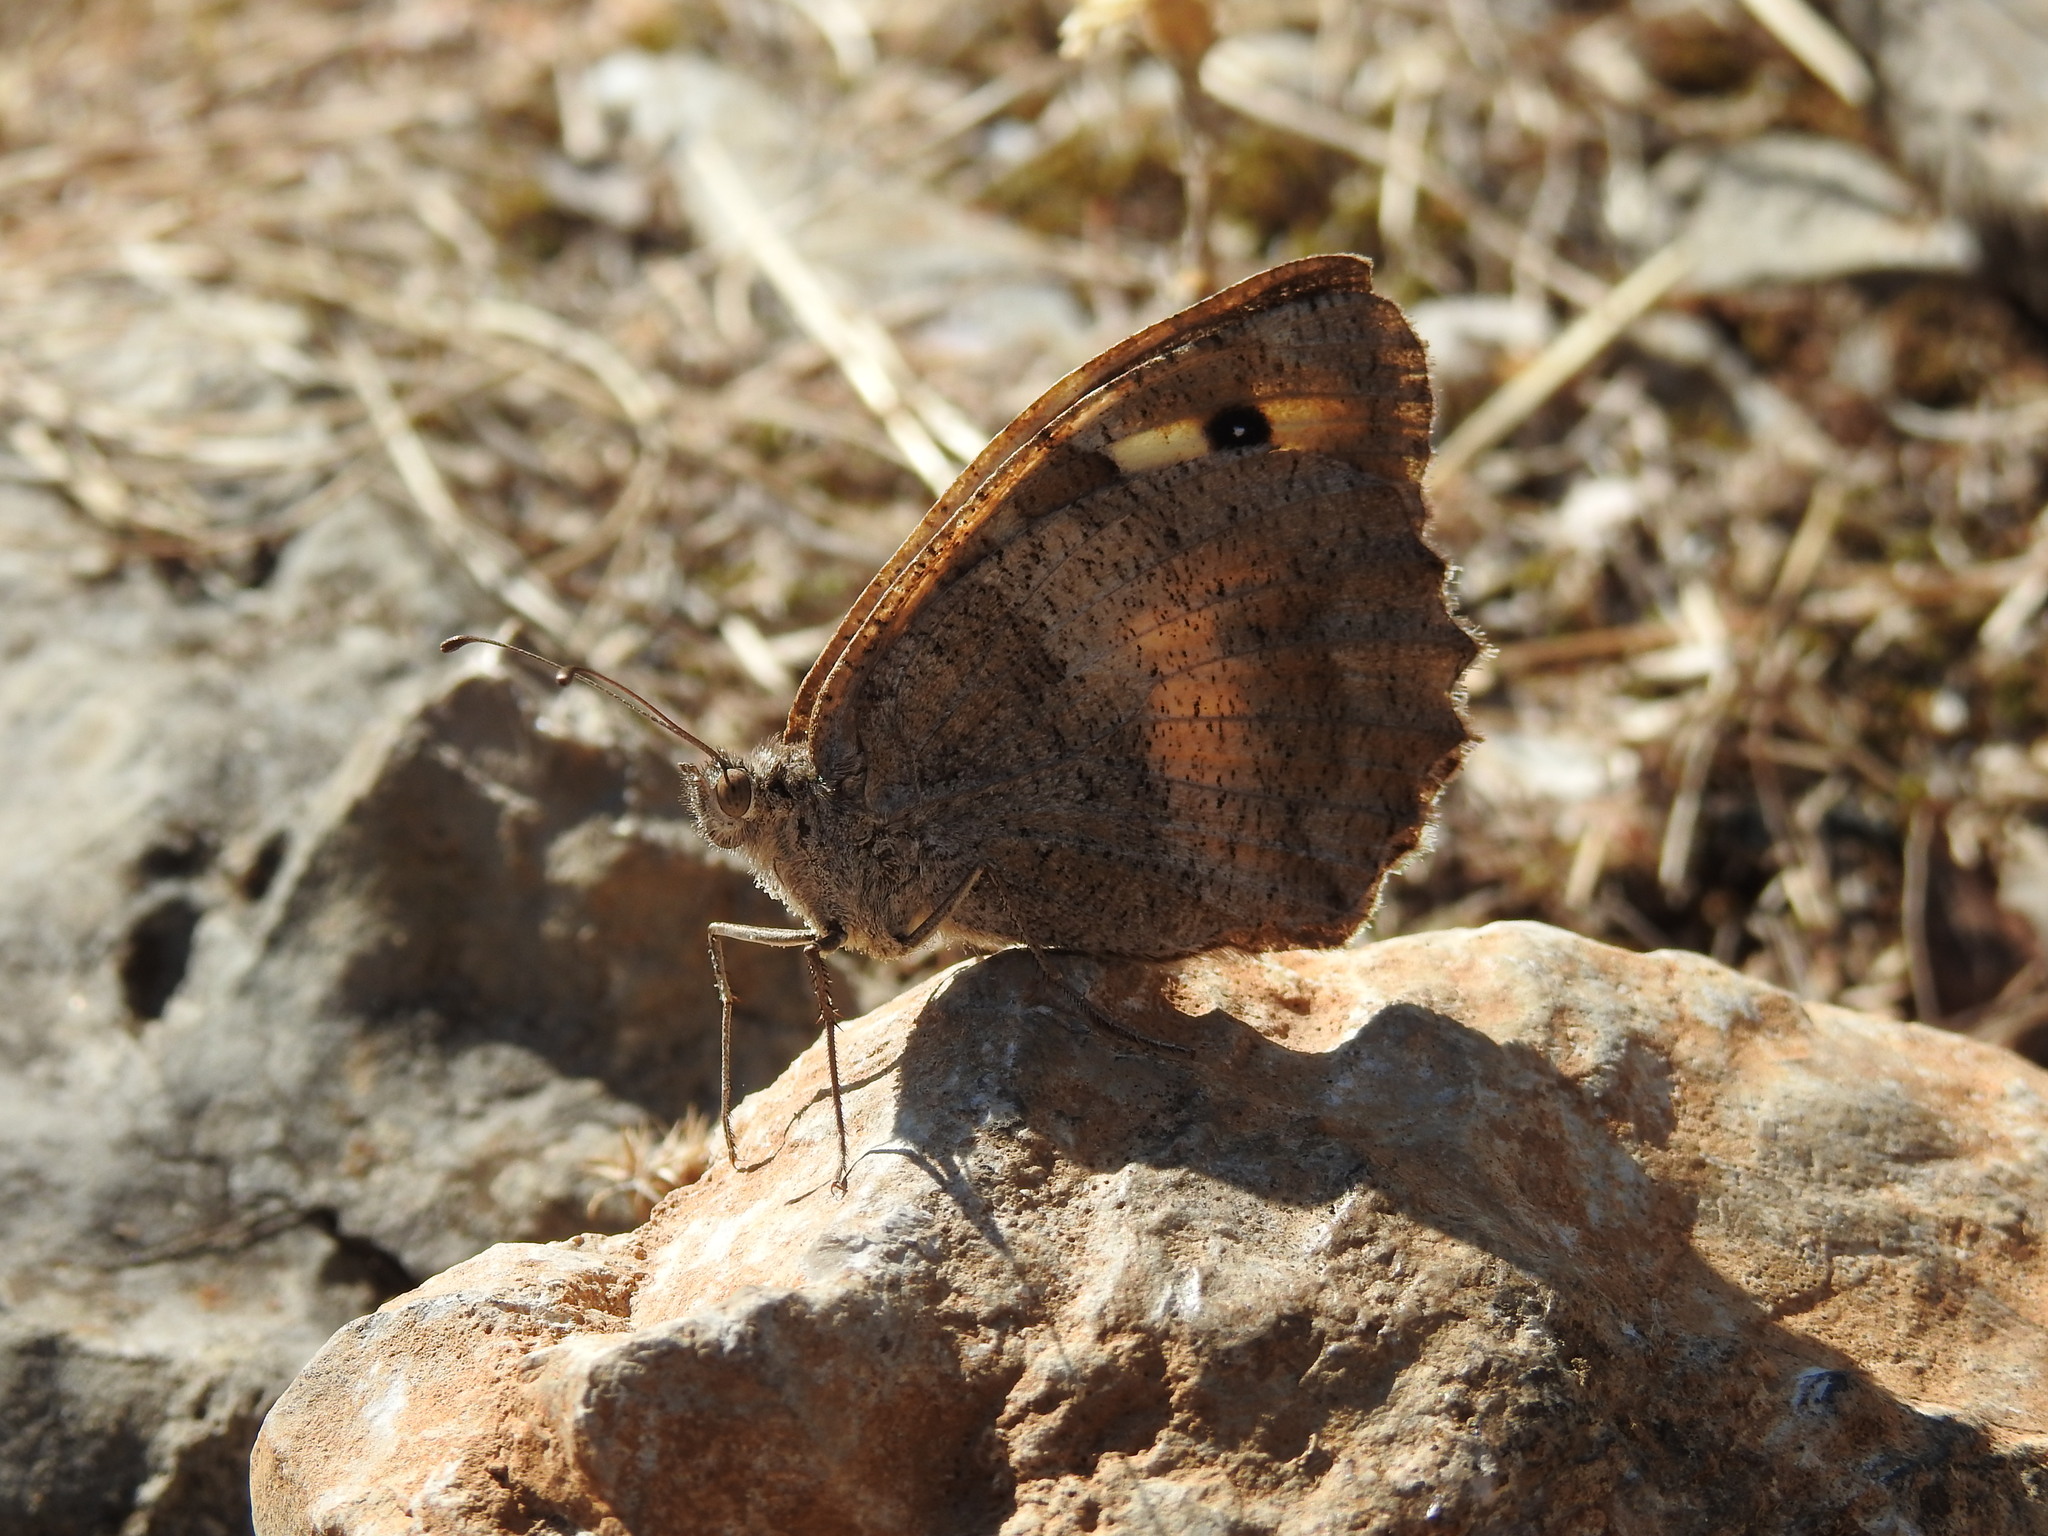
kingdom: Animalia
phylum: Arthropoda
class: Insecta
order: Lepidoptera
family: Nymphalidae
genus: Satyrus
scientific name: Satyrus briseis
